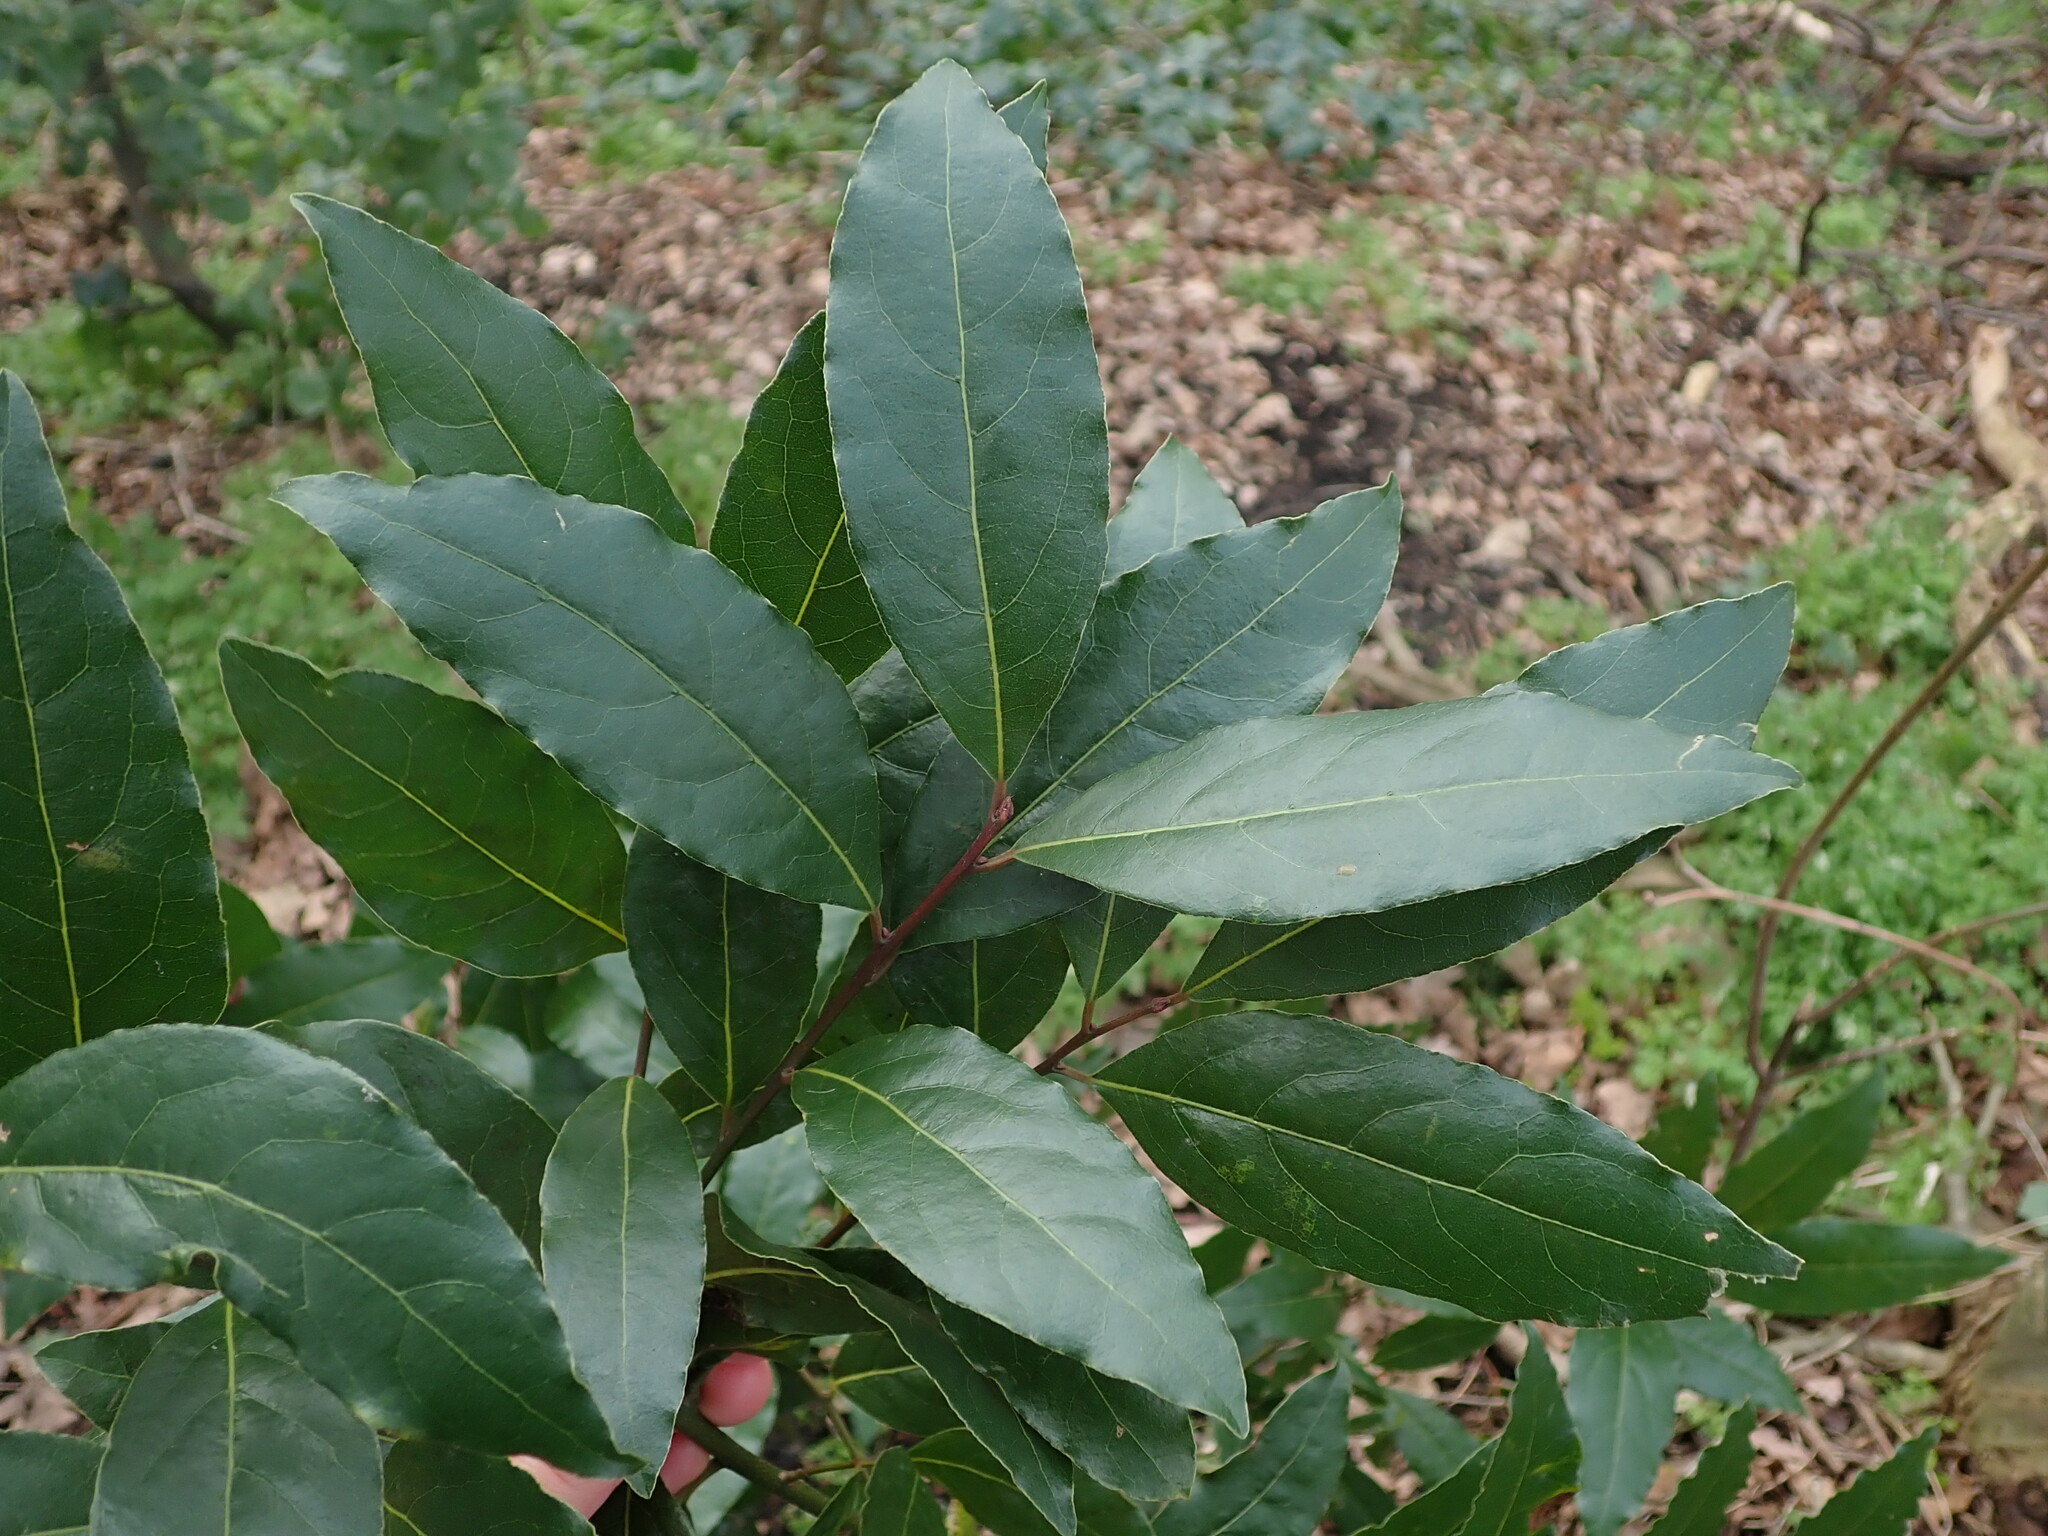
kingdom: Plantae
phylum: Tracheophyta
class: Magnoliopsida
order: Laurales
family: Lauraceae
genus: Laurus
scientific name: Laurus nobilis
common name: Bay
